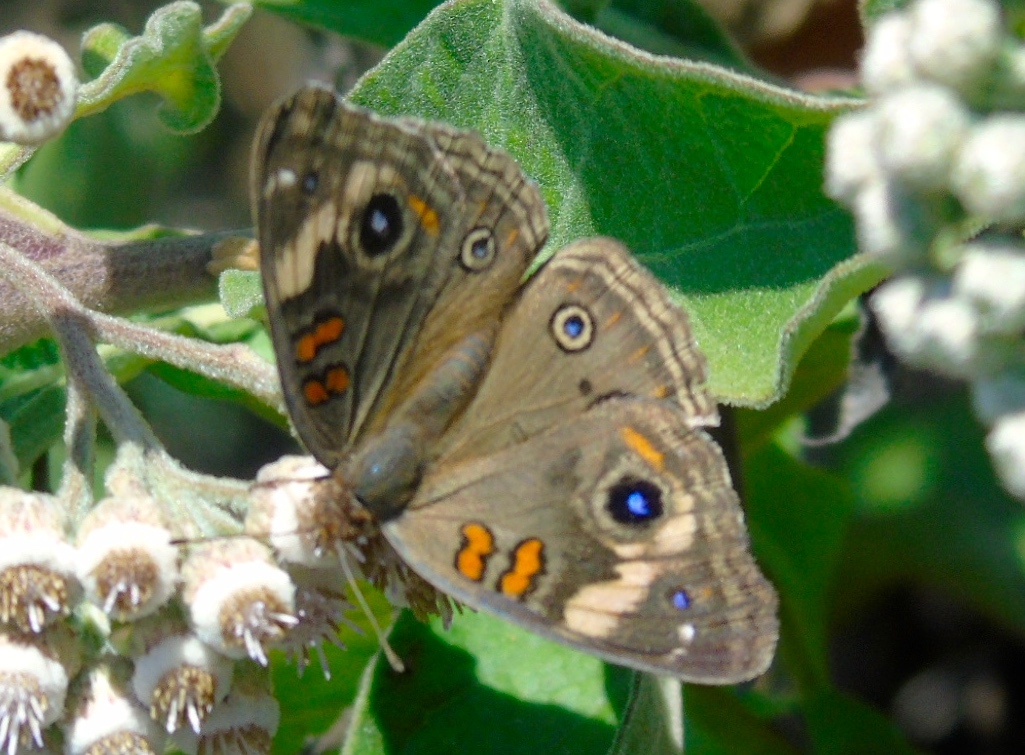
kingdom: Animalia
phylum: Arthropoda
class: Insecta
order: Lepidoptera
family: Nymphalidae
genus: Junonia
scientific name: Junonia coenia
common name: Common buckeye
